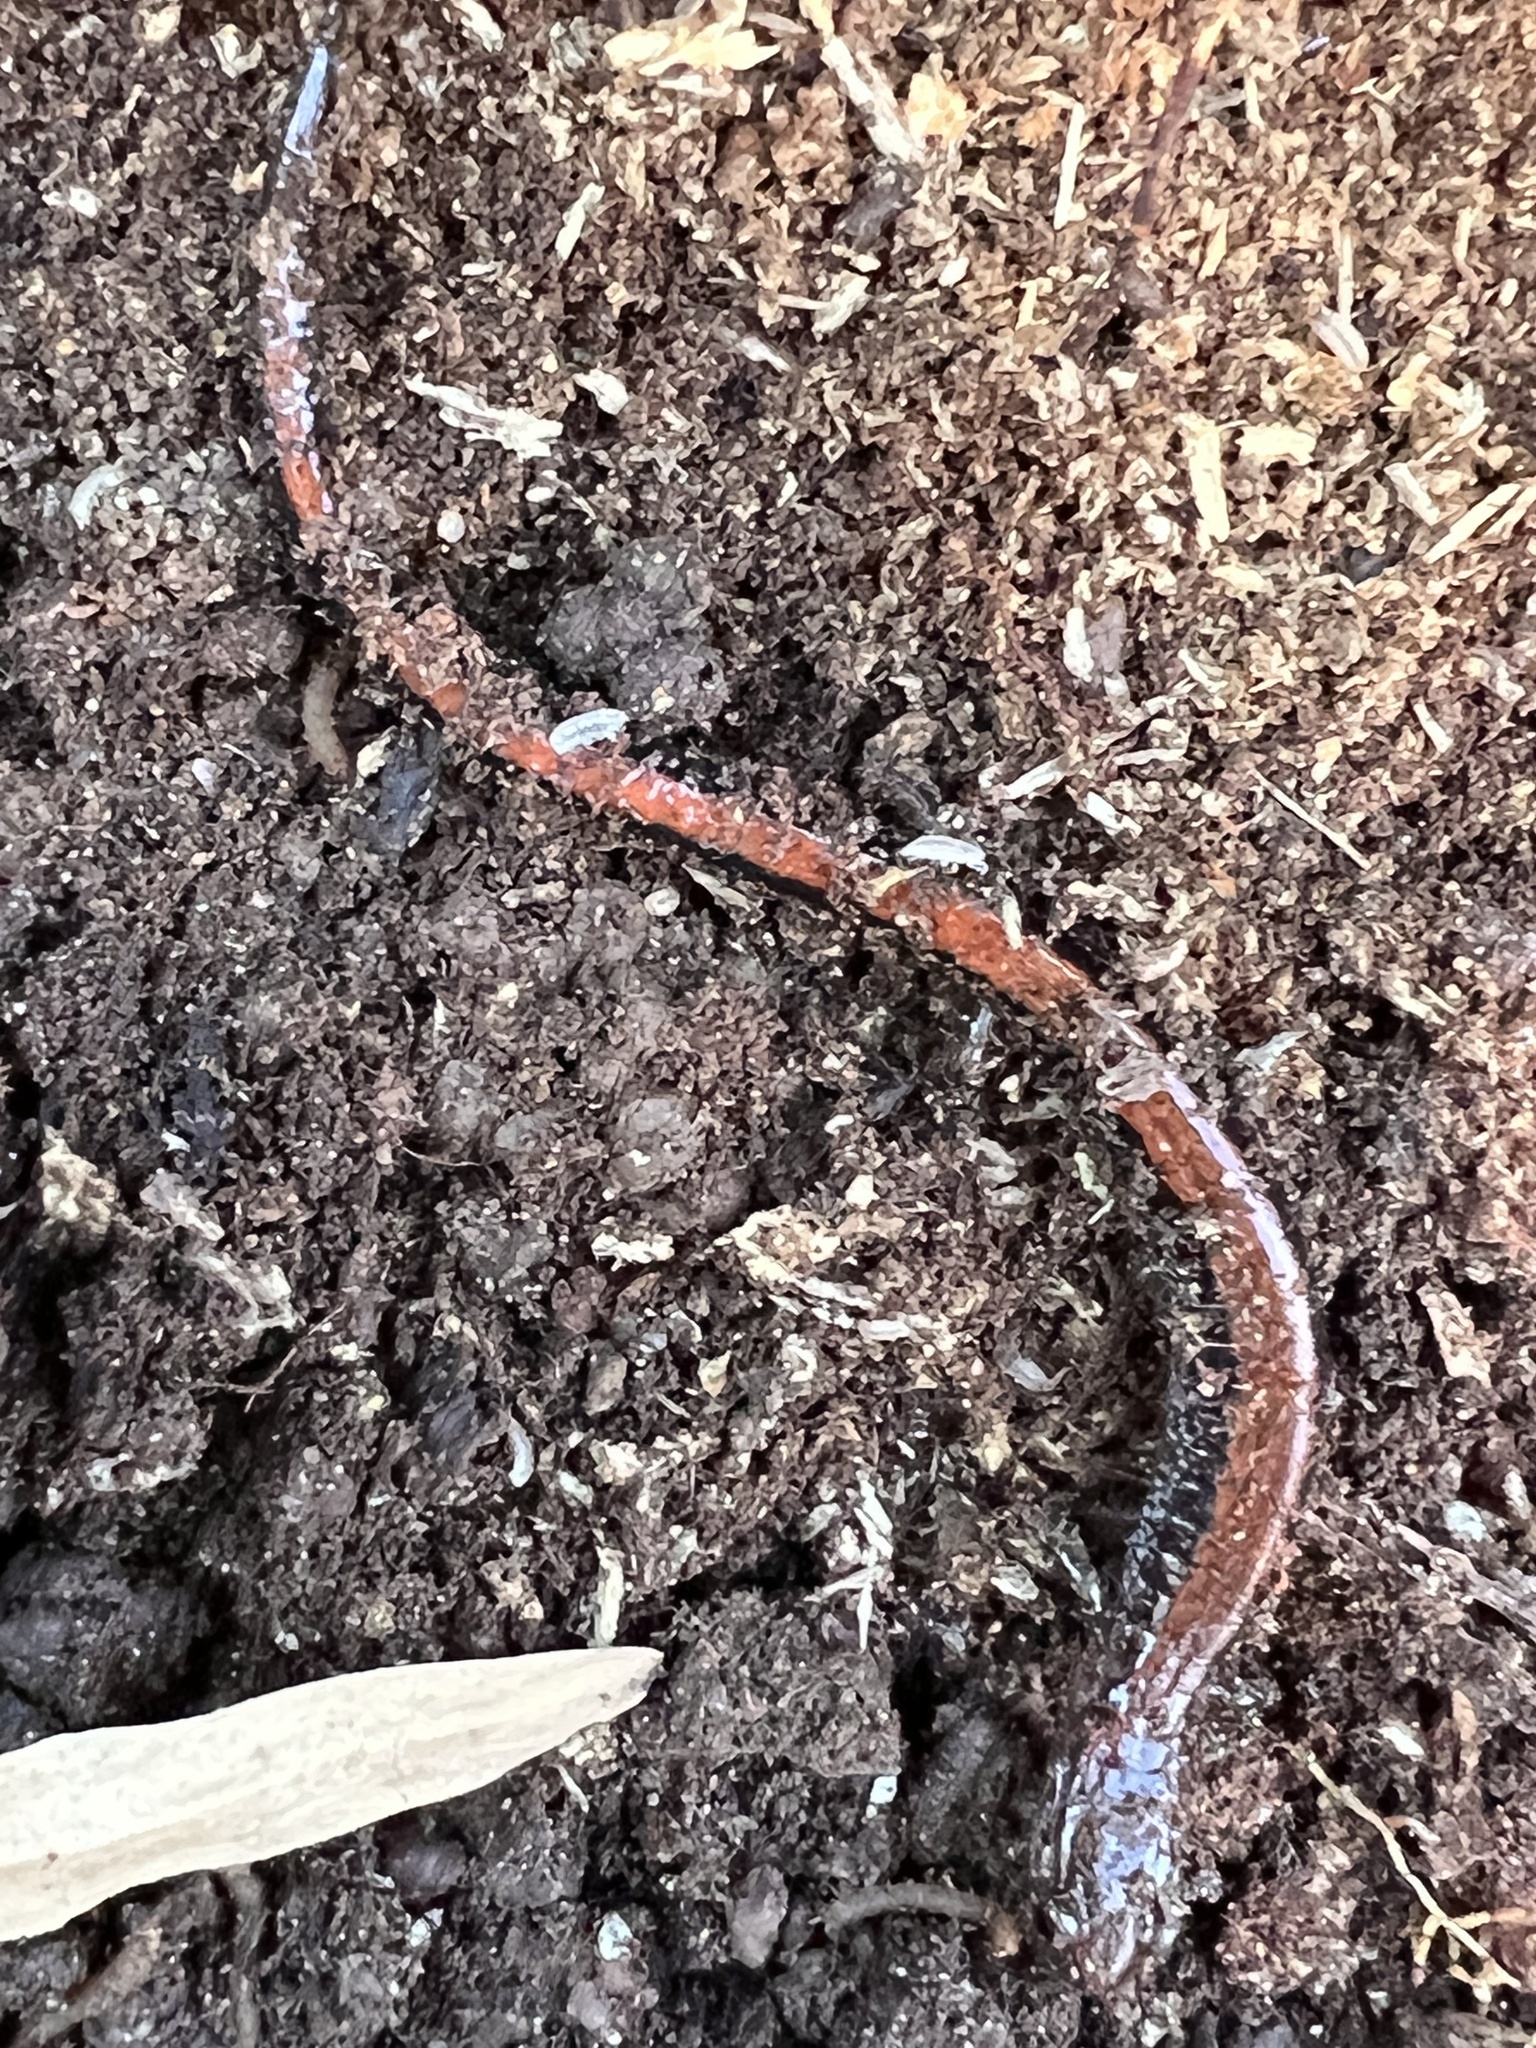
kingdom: Animalia
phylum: Chordata
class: Amphibia
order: Caudata
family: Plethodontidae
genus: Plethodon
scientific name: Plethodon cinereus
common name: Redback salamander
